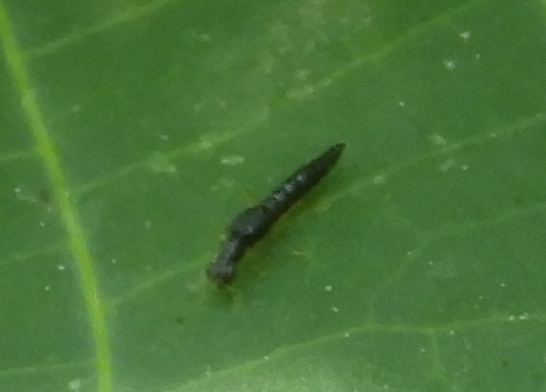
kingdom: Animalia
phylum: Arthropoda
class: Insecta
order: Coleoptera
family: Staphylinidae
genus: Stenus
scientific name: Stenus
